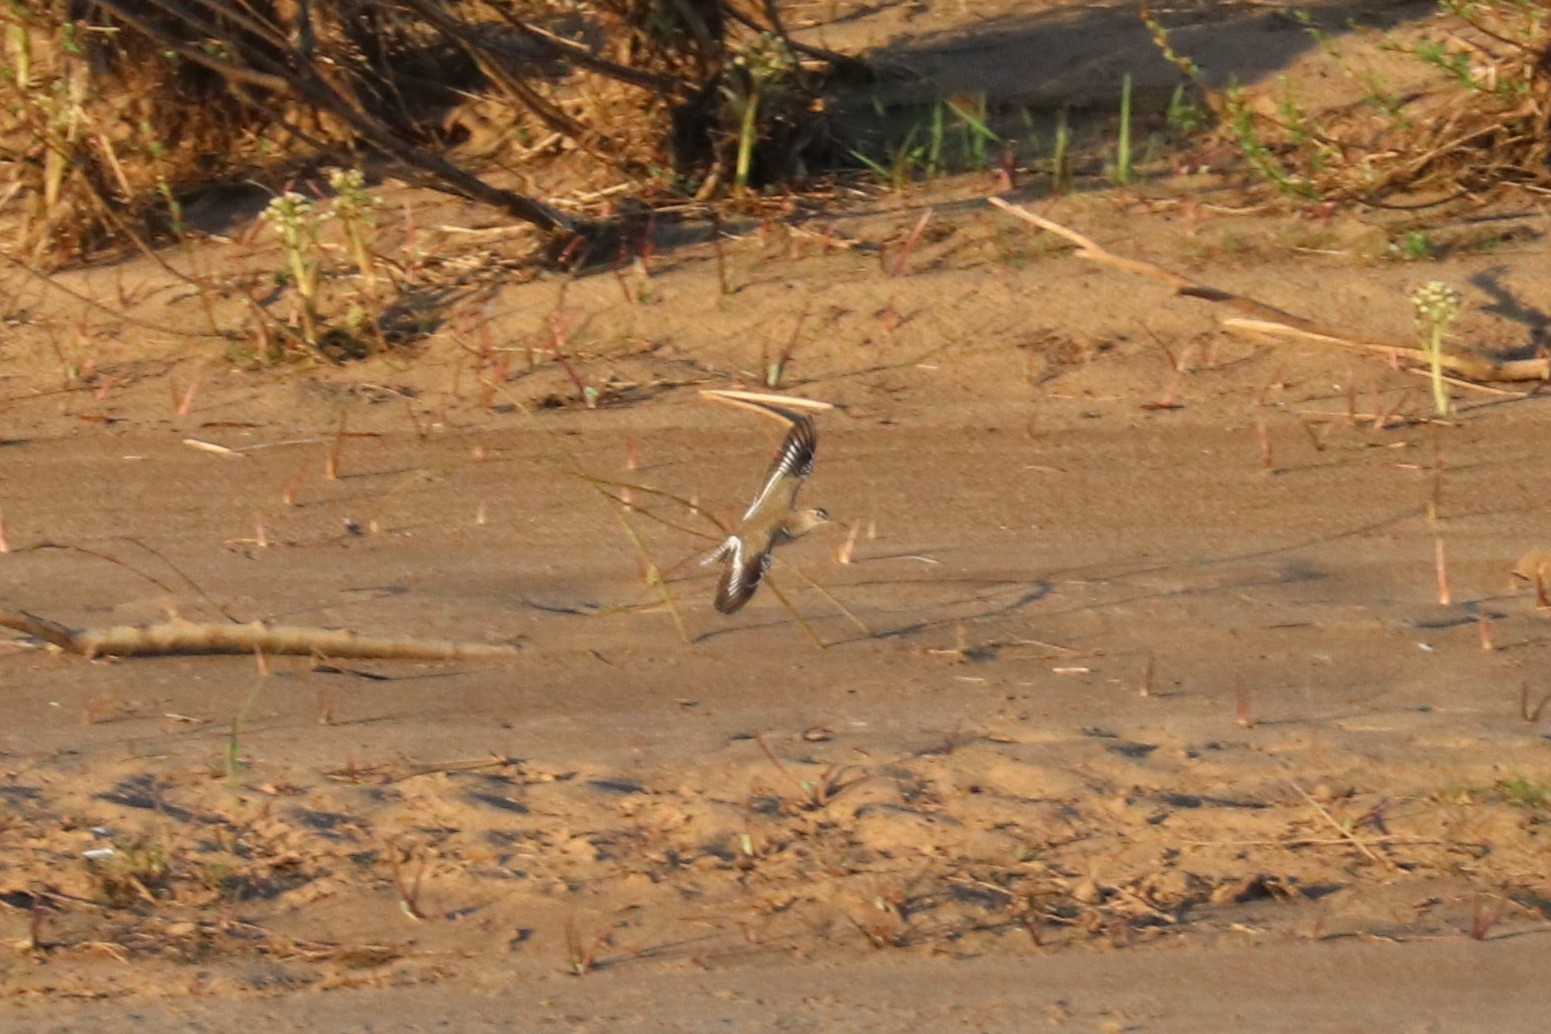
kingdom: Animalia
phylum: Chordata
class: Aves
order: Charadriiformes
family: Scolopacidae
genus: Actitis
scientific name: Actitis hypoleucos
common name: Common sandpiper
